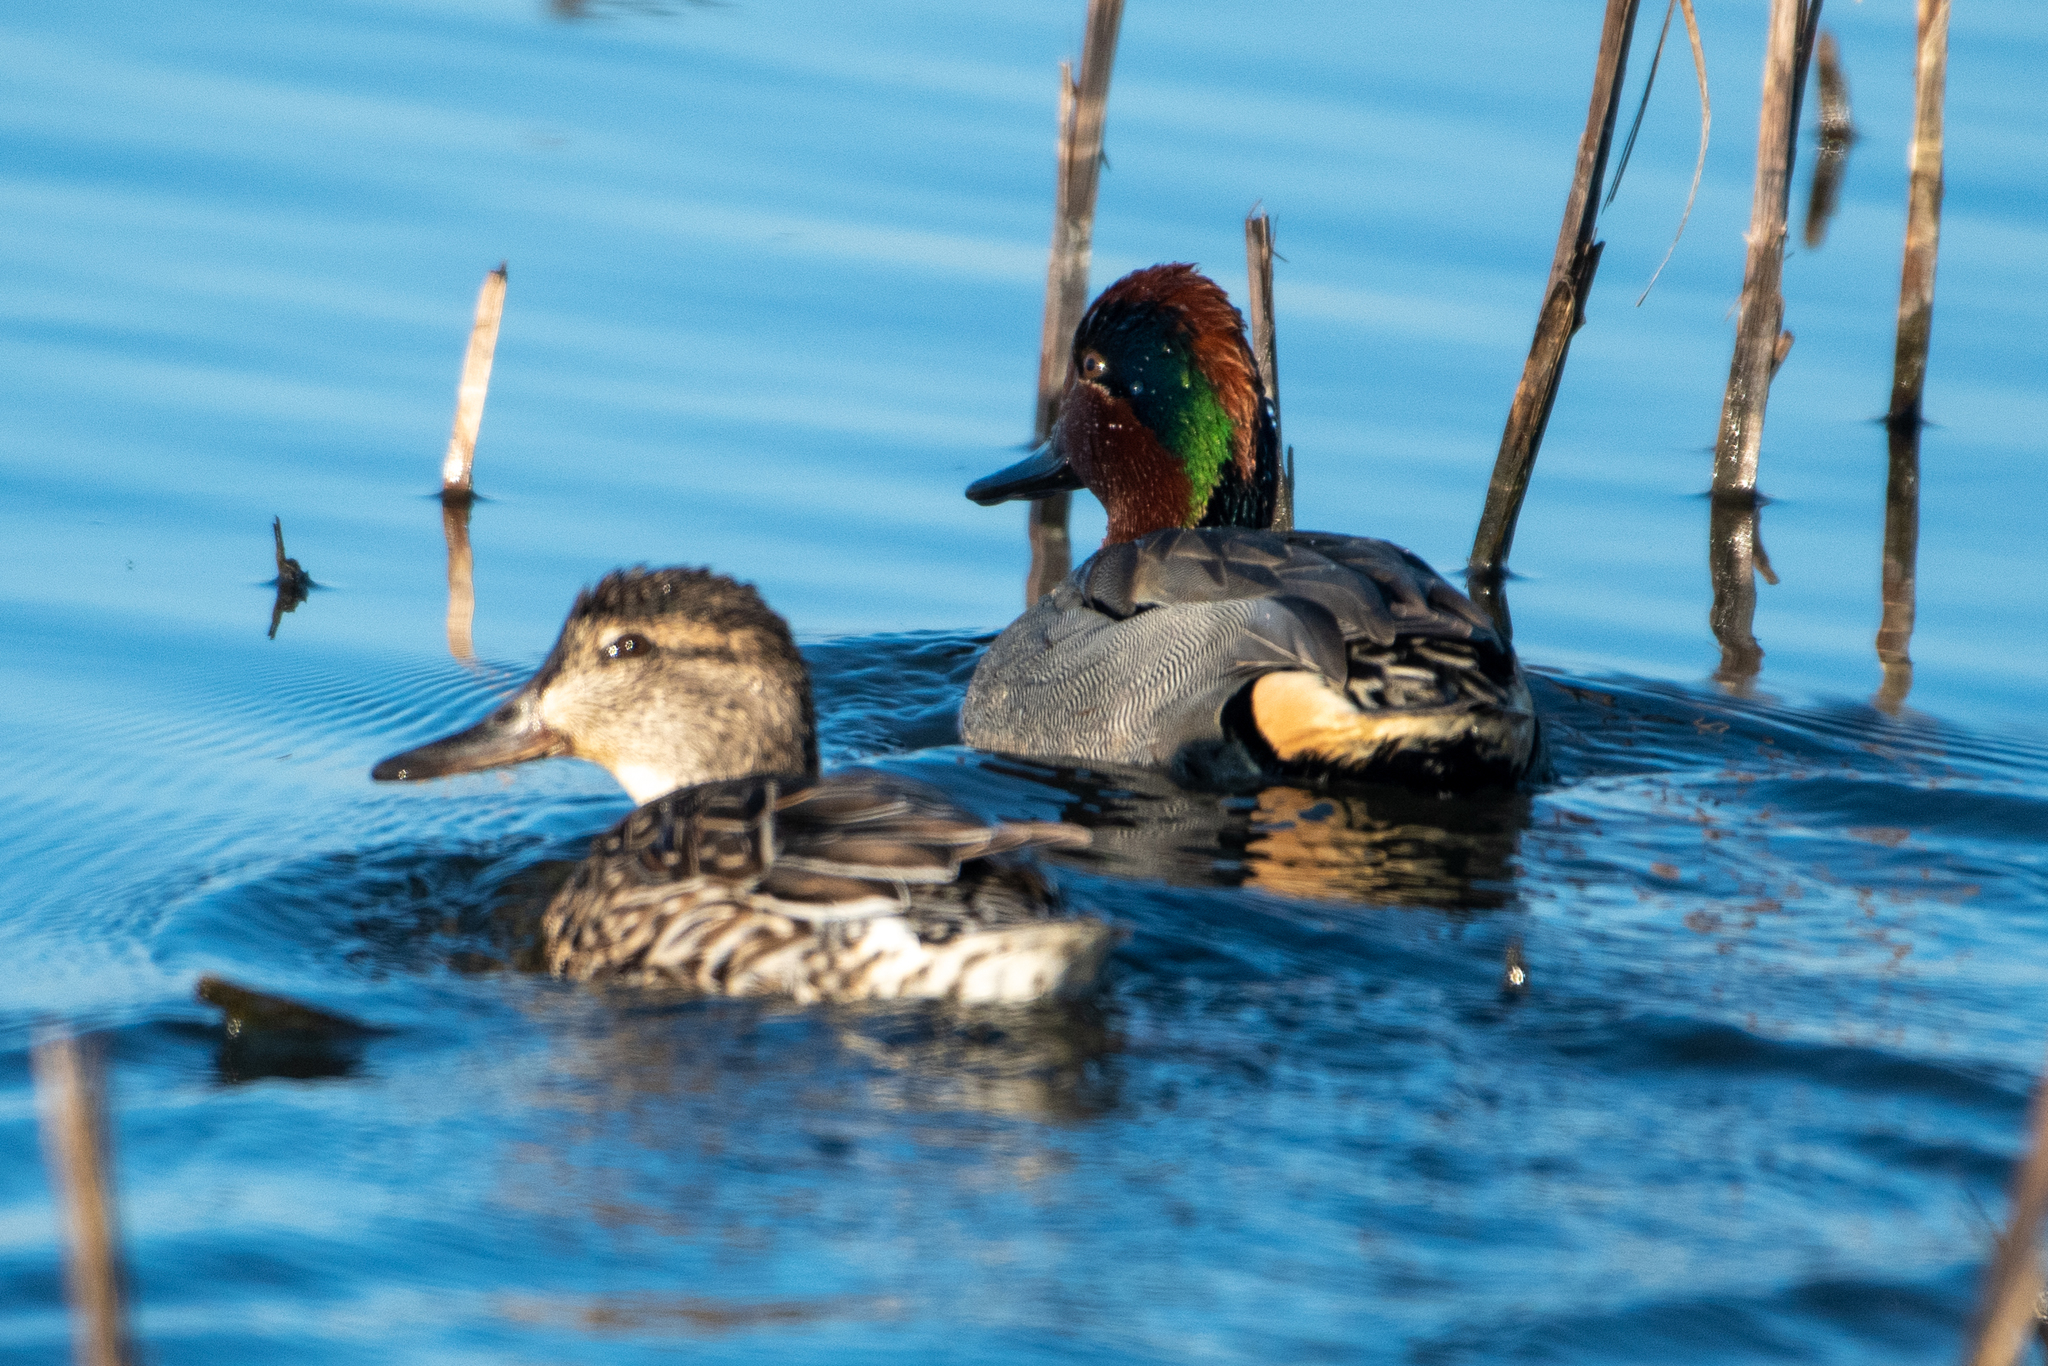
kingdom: Animalia
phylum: Chordata
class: Aves
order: Anseriformes
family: Anatidae
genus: Anas
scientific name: Anas crecca
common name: Eurasian teal
